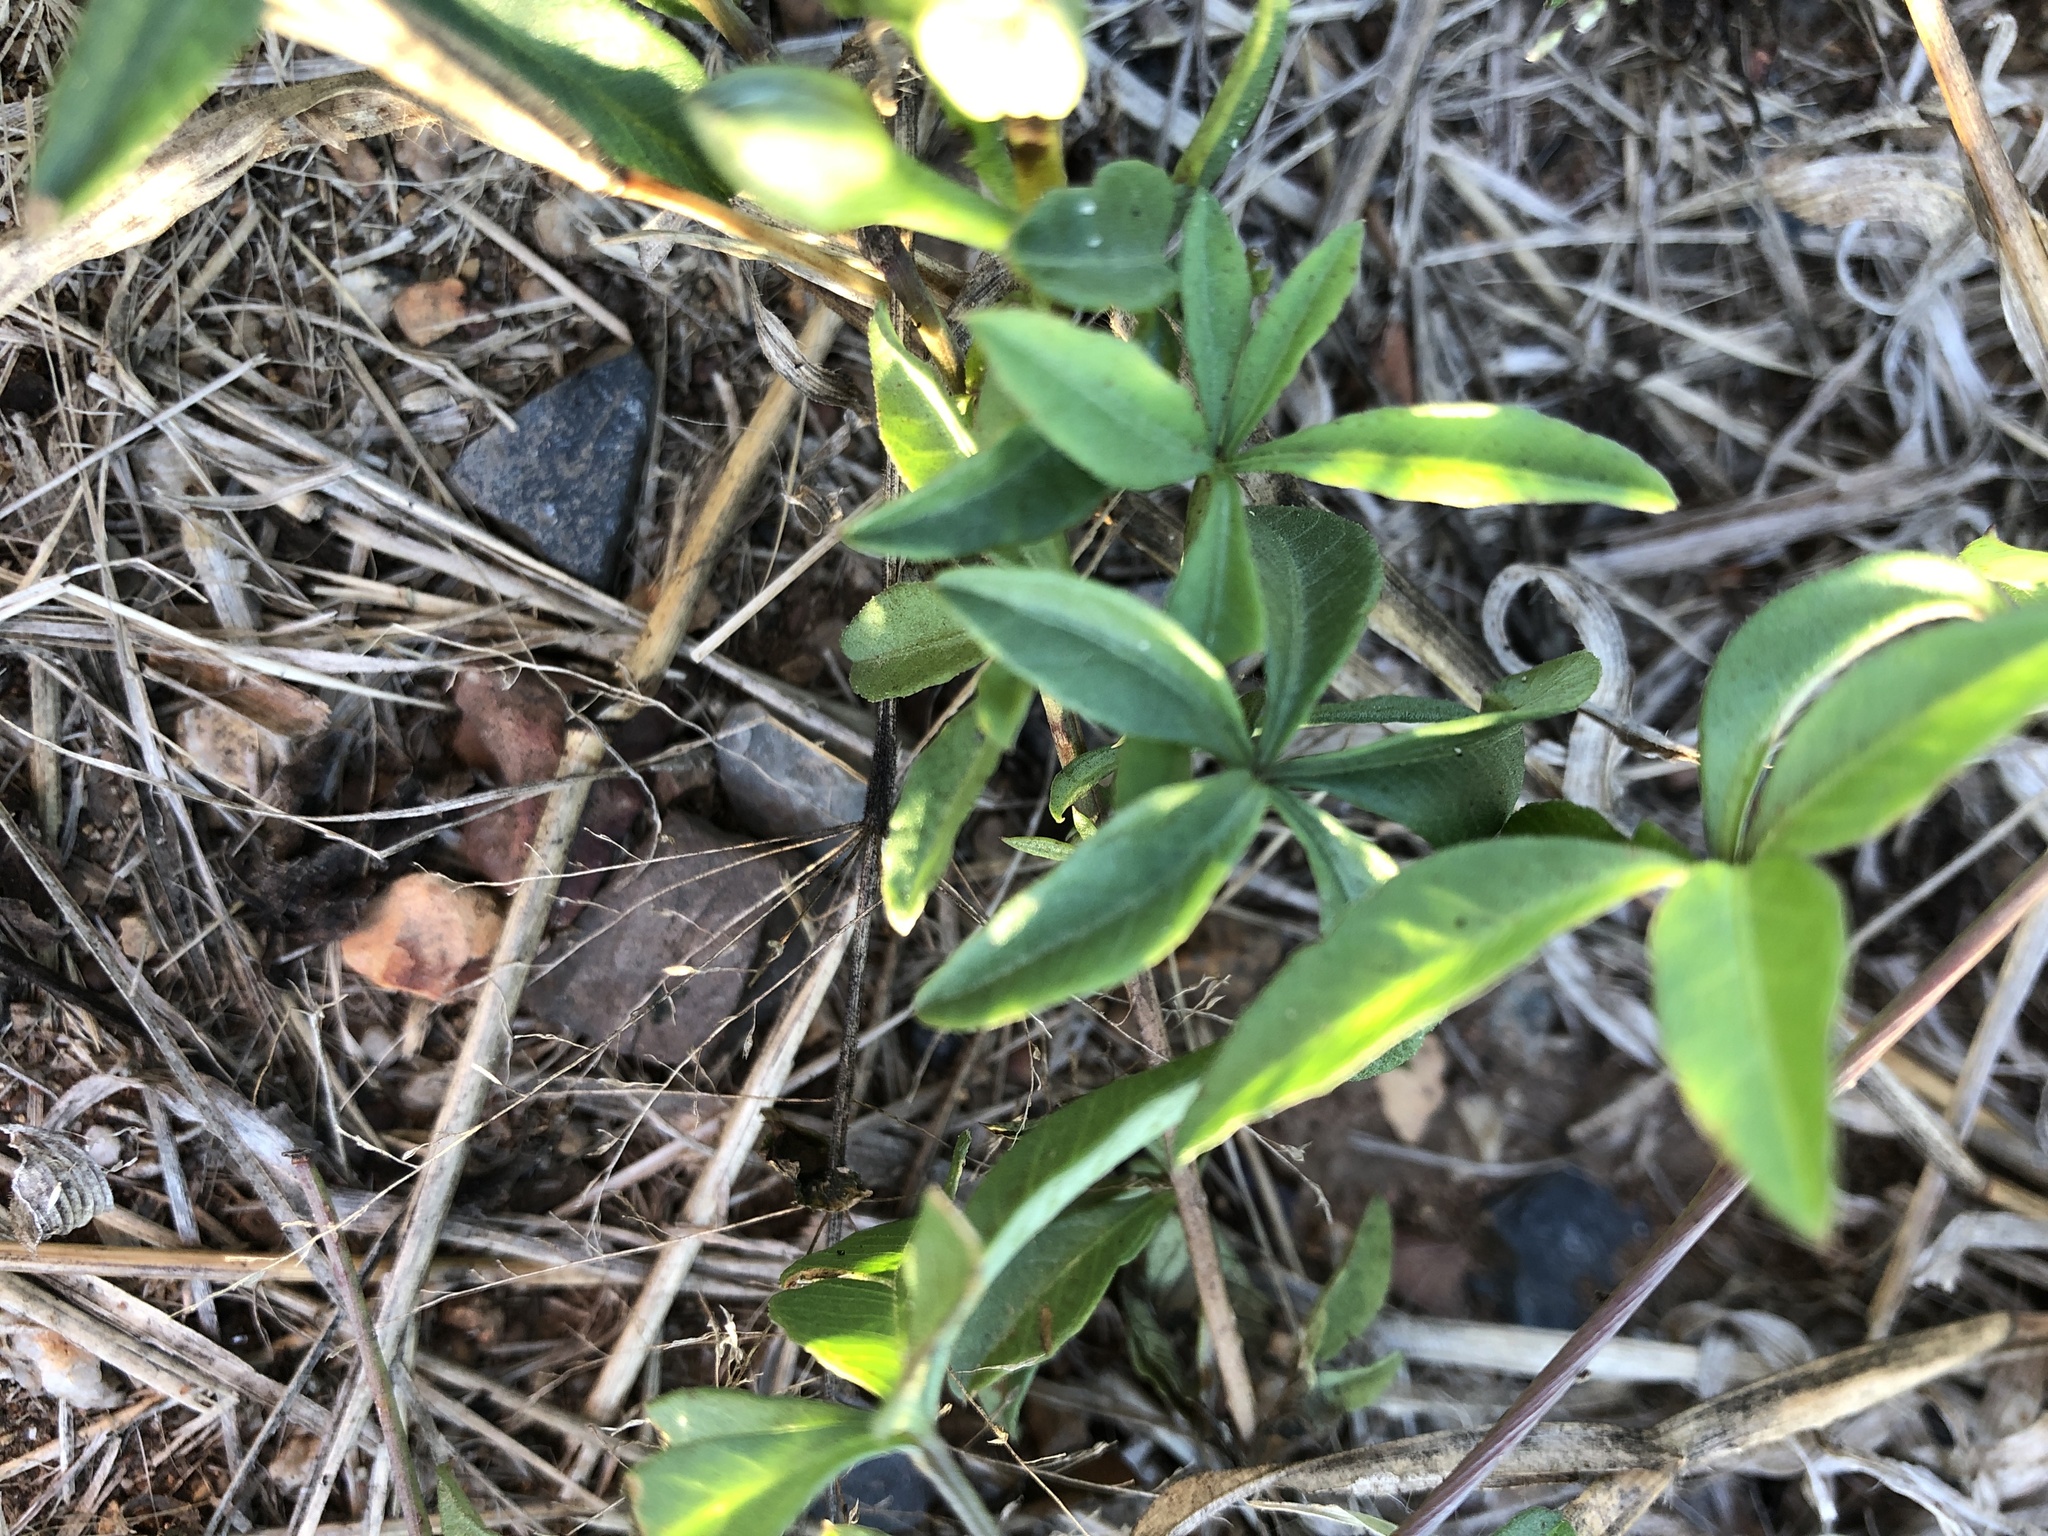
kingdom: Plantae
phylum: Tracheophyta
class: Magnoliopsida
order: Solanales
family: Convolvulaceae
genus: Ipomoea
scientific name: Ipomoea cairica
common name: Mile a minute vine
